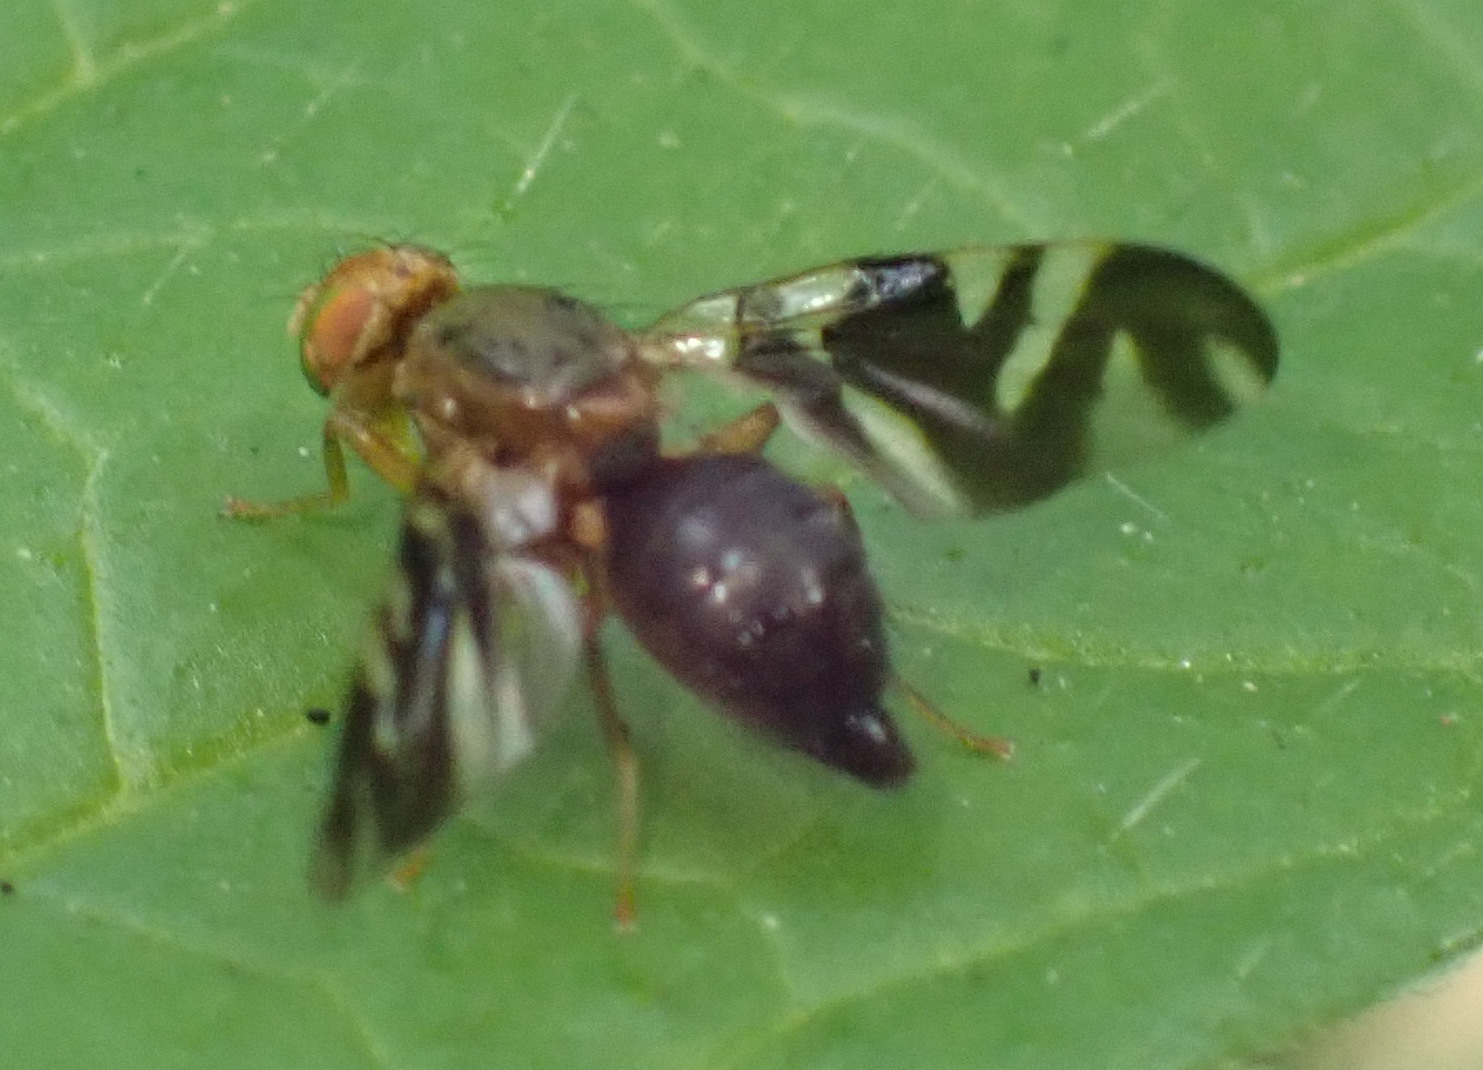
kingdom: Animalia
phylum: Arthropoda
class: Insecta
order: Diptera
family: Tephritidae
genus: Philophylla
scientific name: Philophylla caesio
